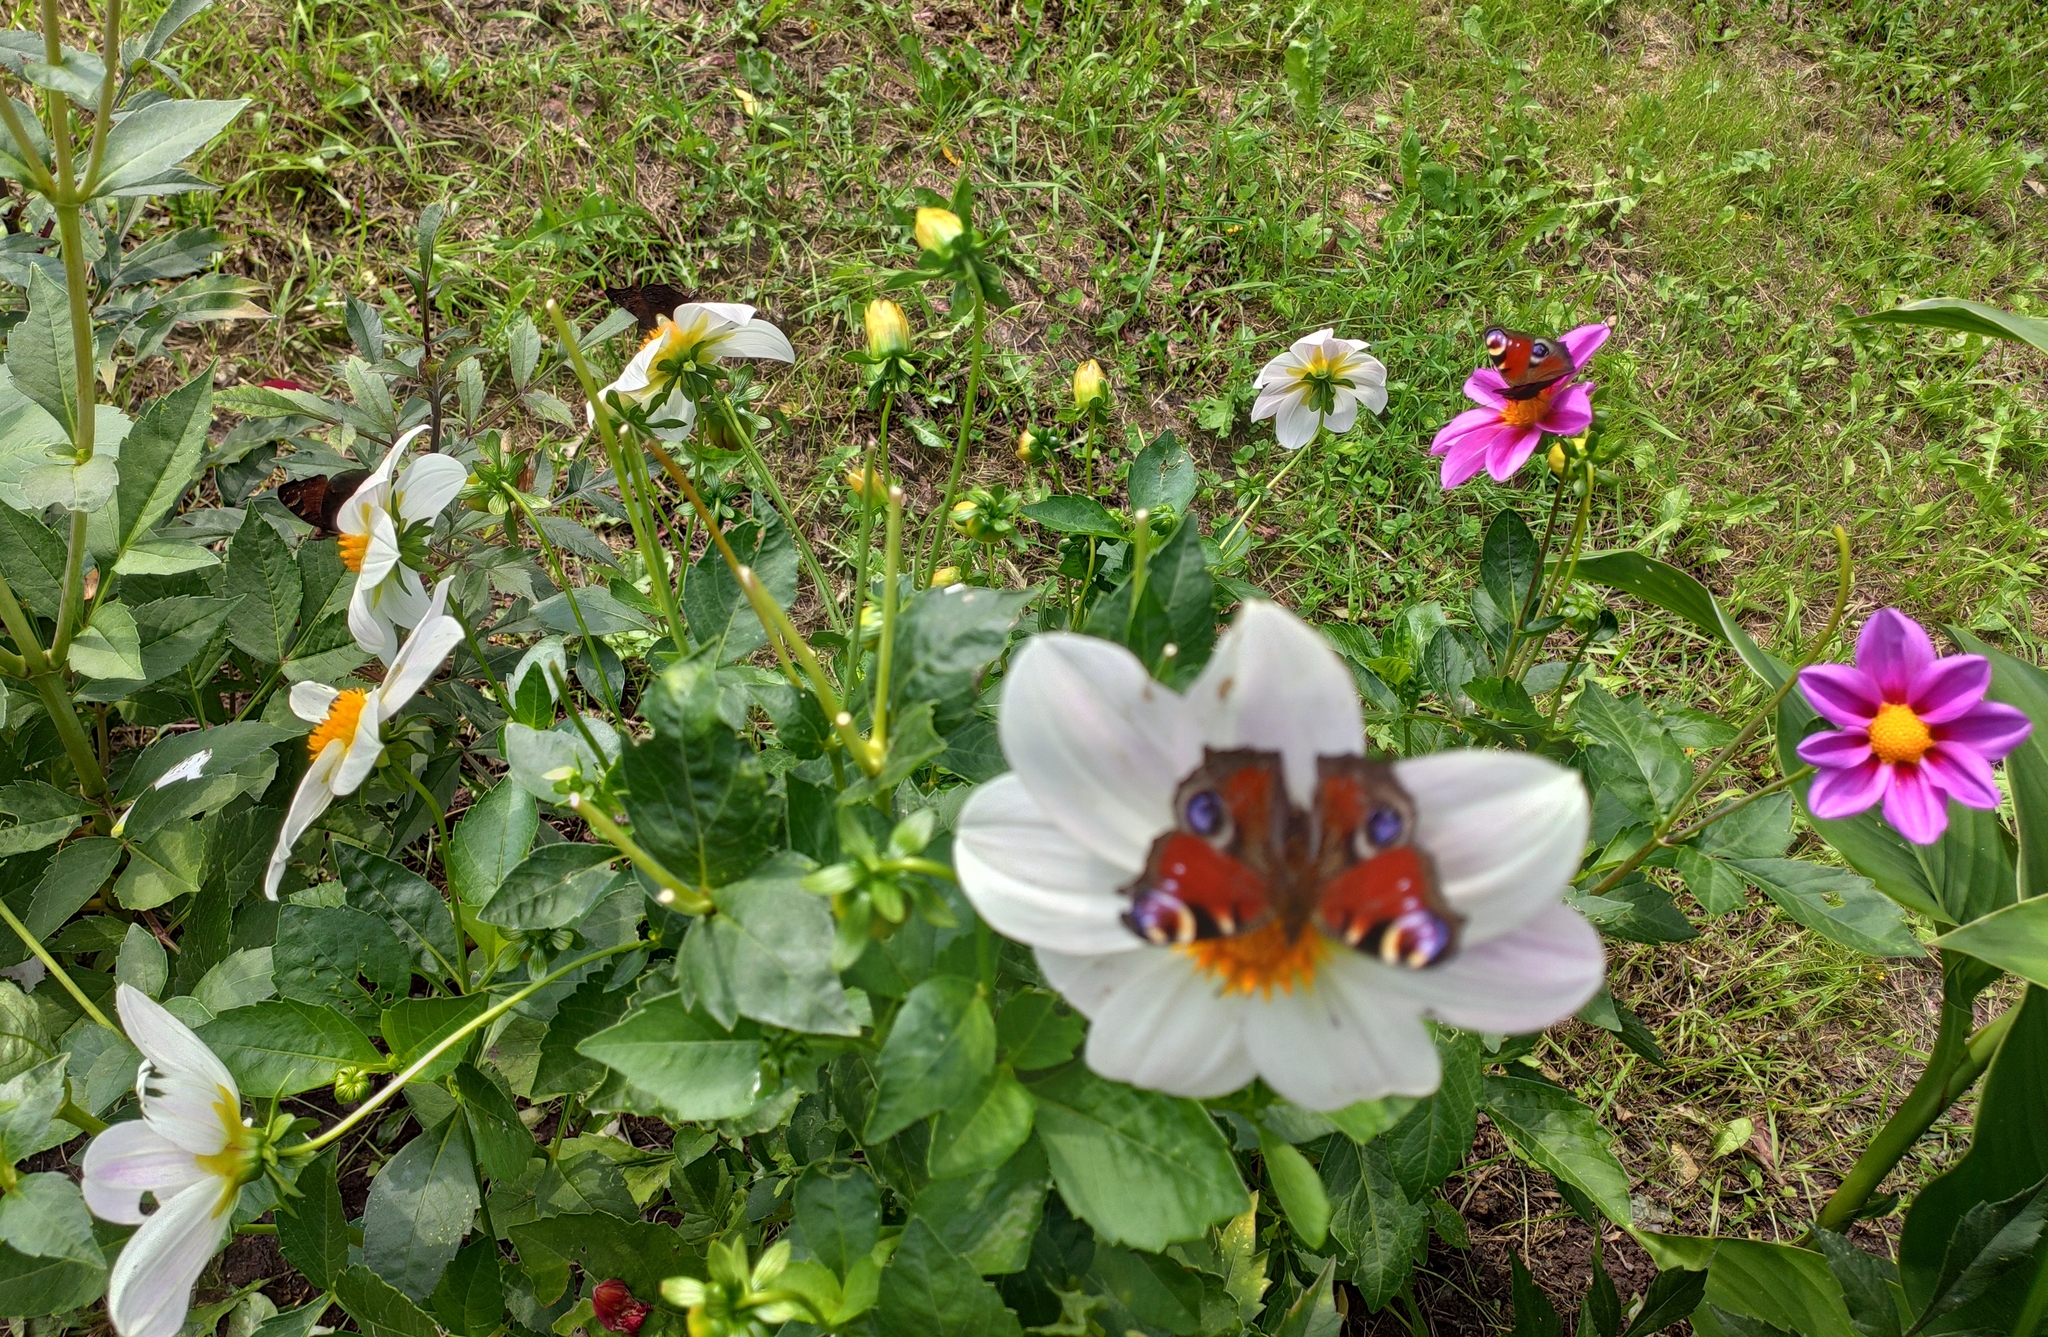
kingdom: Animalia
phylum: Arthropoda
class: Insecta
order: Lepidoptera
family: Nymphalidae
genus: Aglais
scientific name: Aglais io
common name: Peacock
